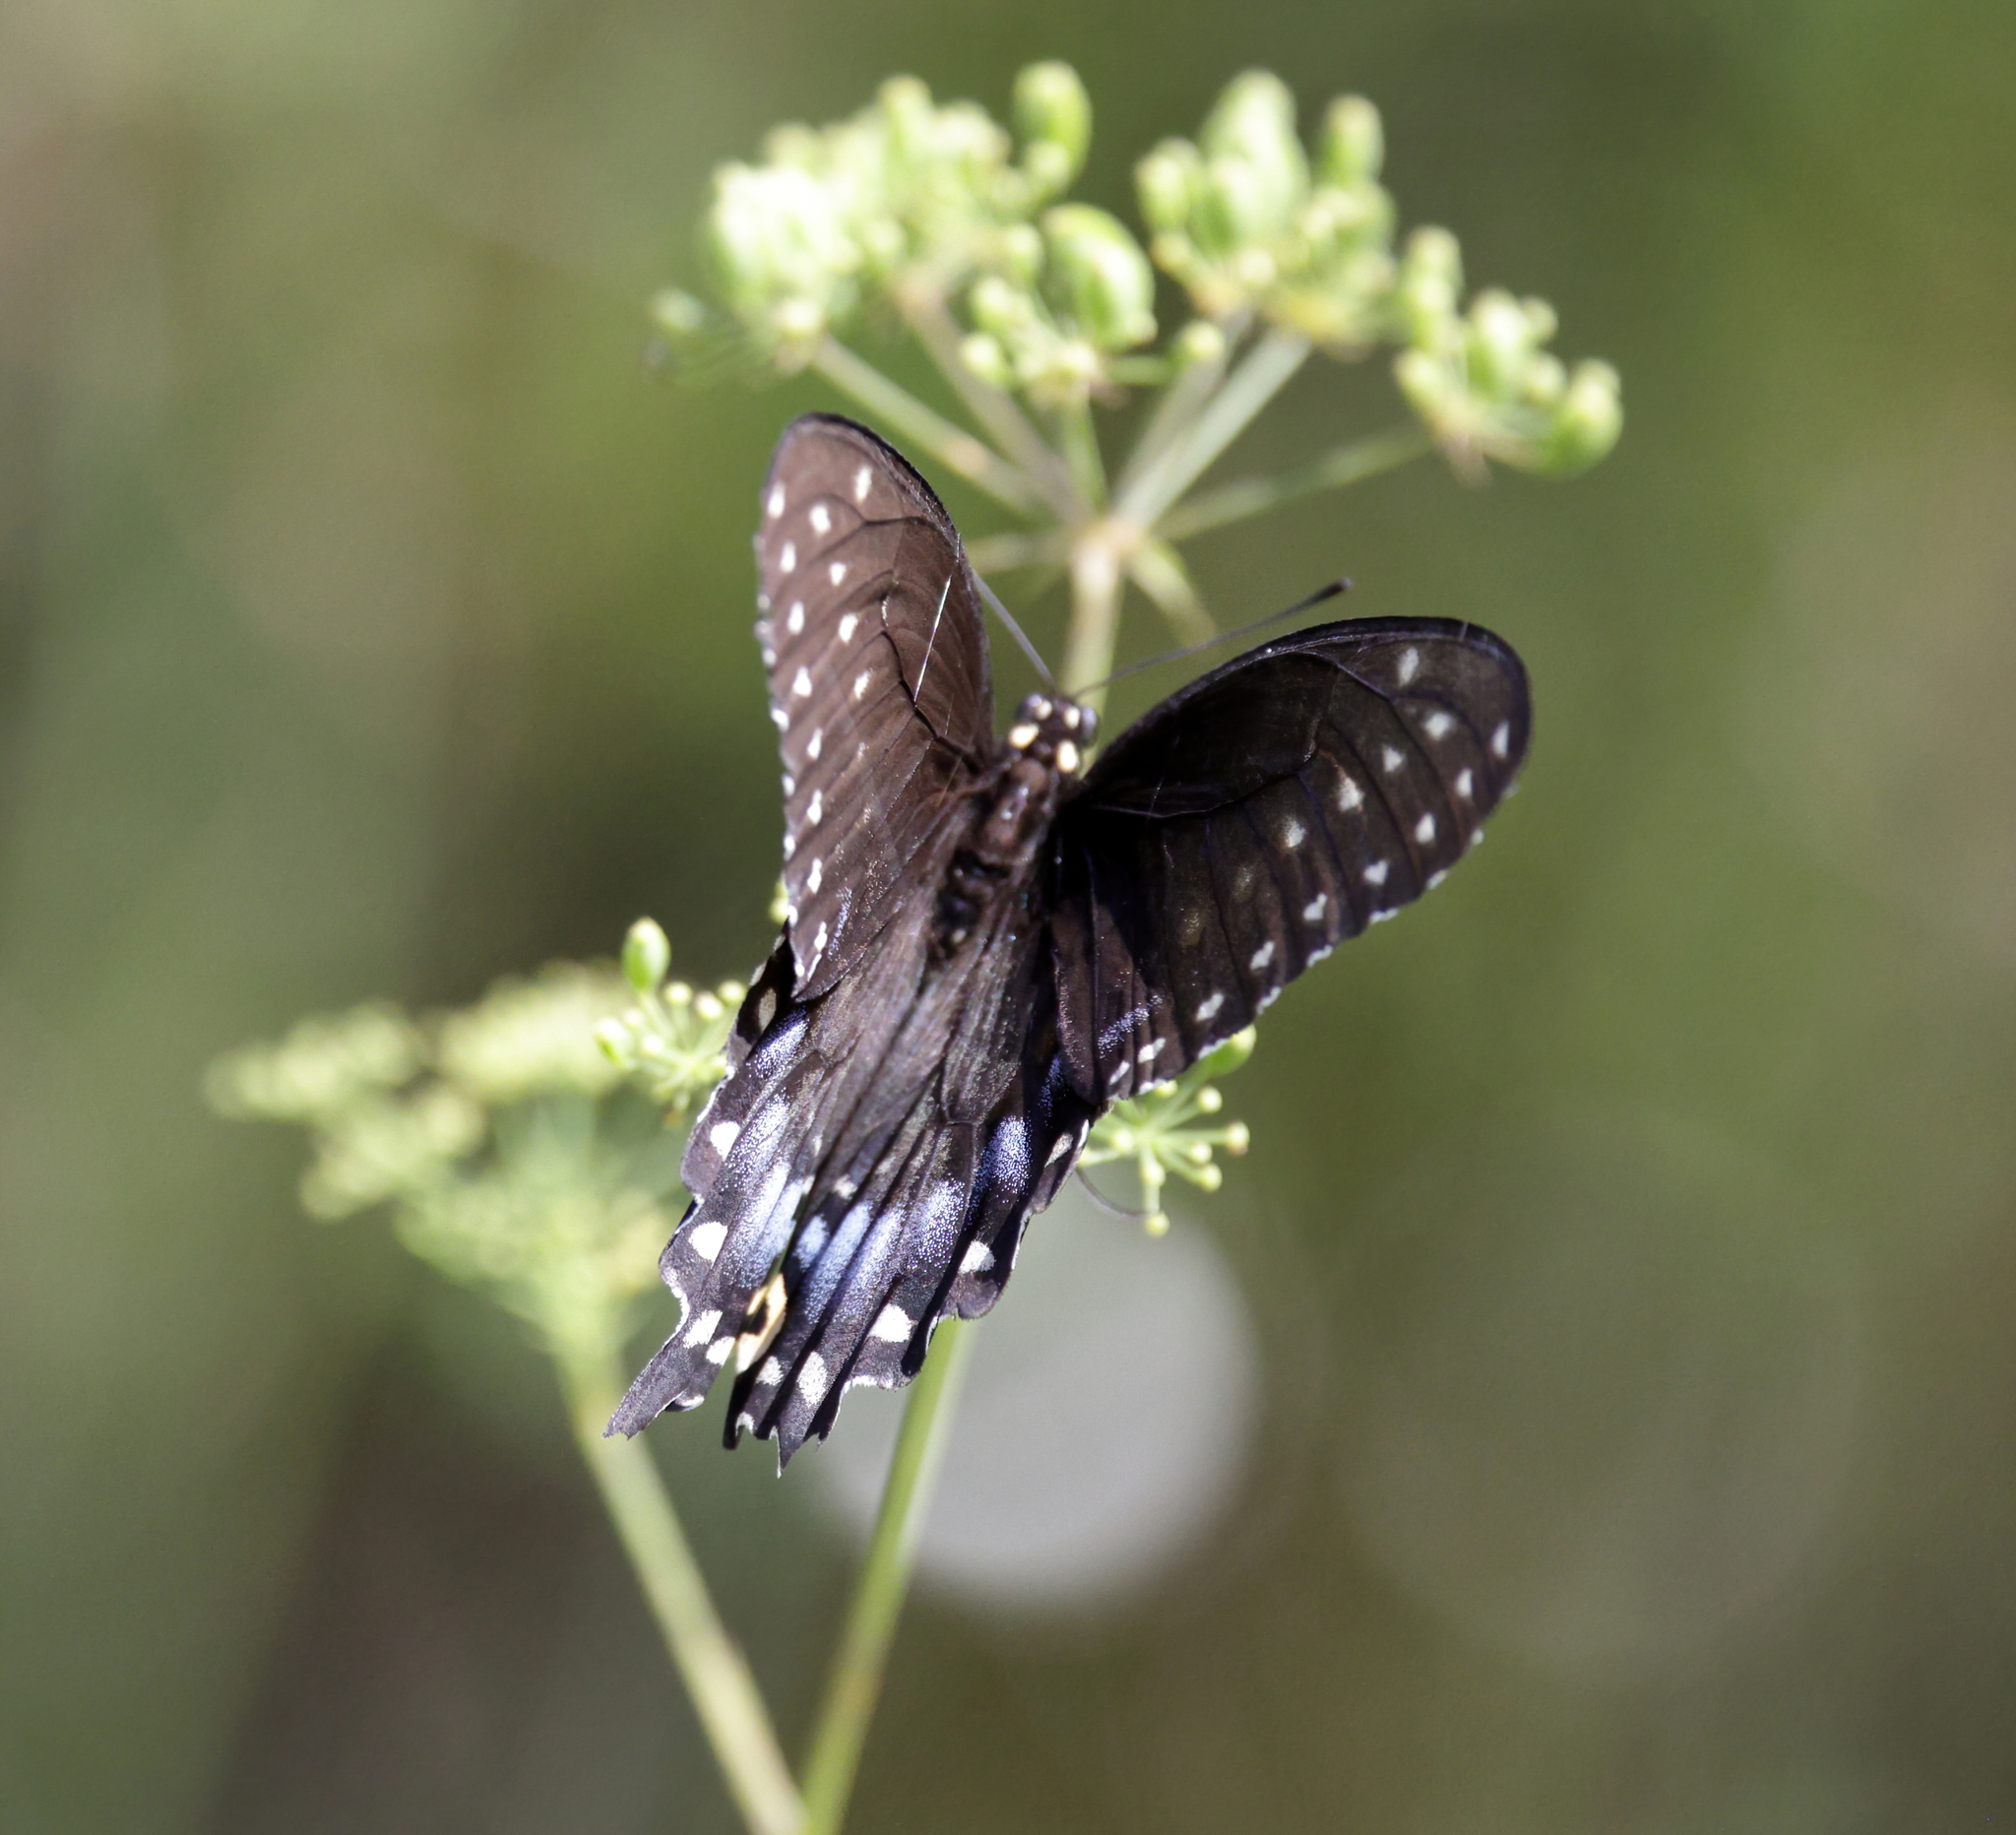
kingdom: Animalia
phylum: Arthropoda
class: Insecta
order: Lepidoptera
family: Papilionidae
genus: Papilio
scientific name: Papilio polyxenes
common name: Black swallowtail
